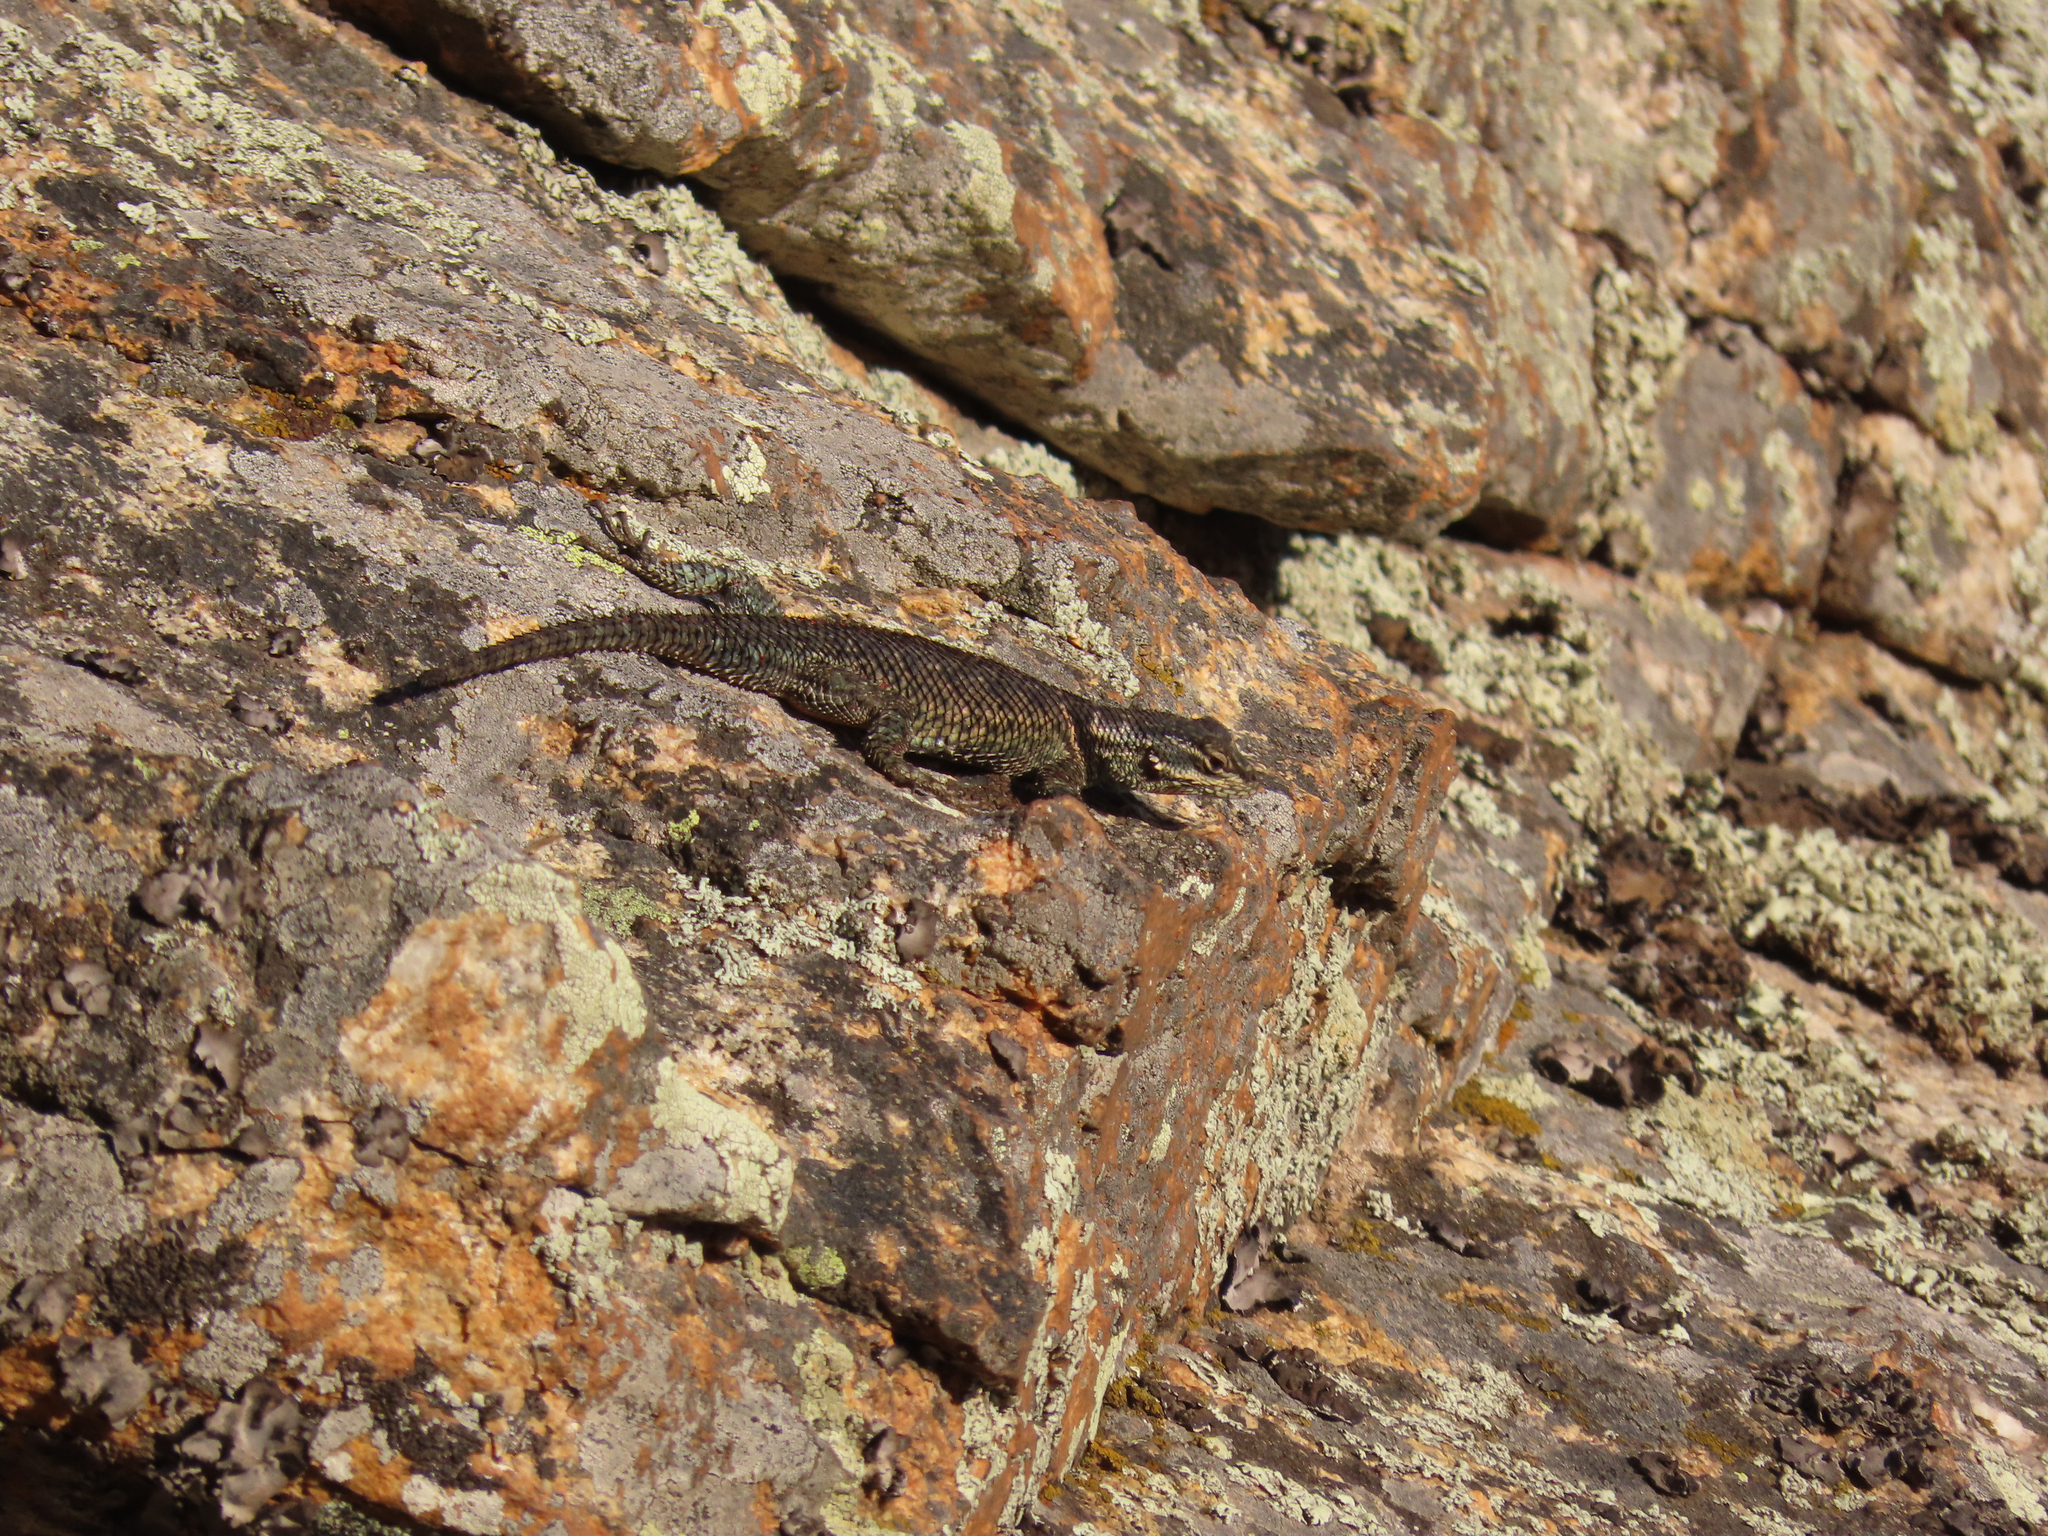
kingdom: Animalia
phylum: Chordata
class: Squamata
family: Phrynosomatidae
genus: Sceloporus
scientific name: Sceloporus jarrovii
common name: Yarrow's spiny lizard
